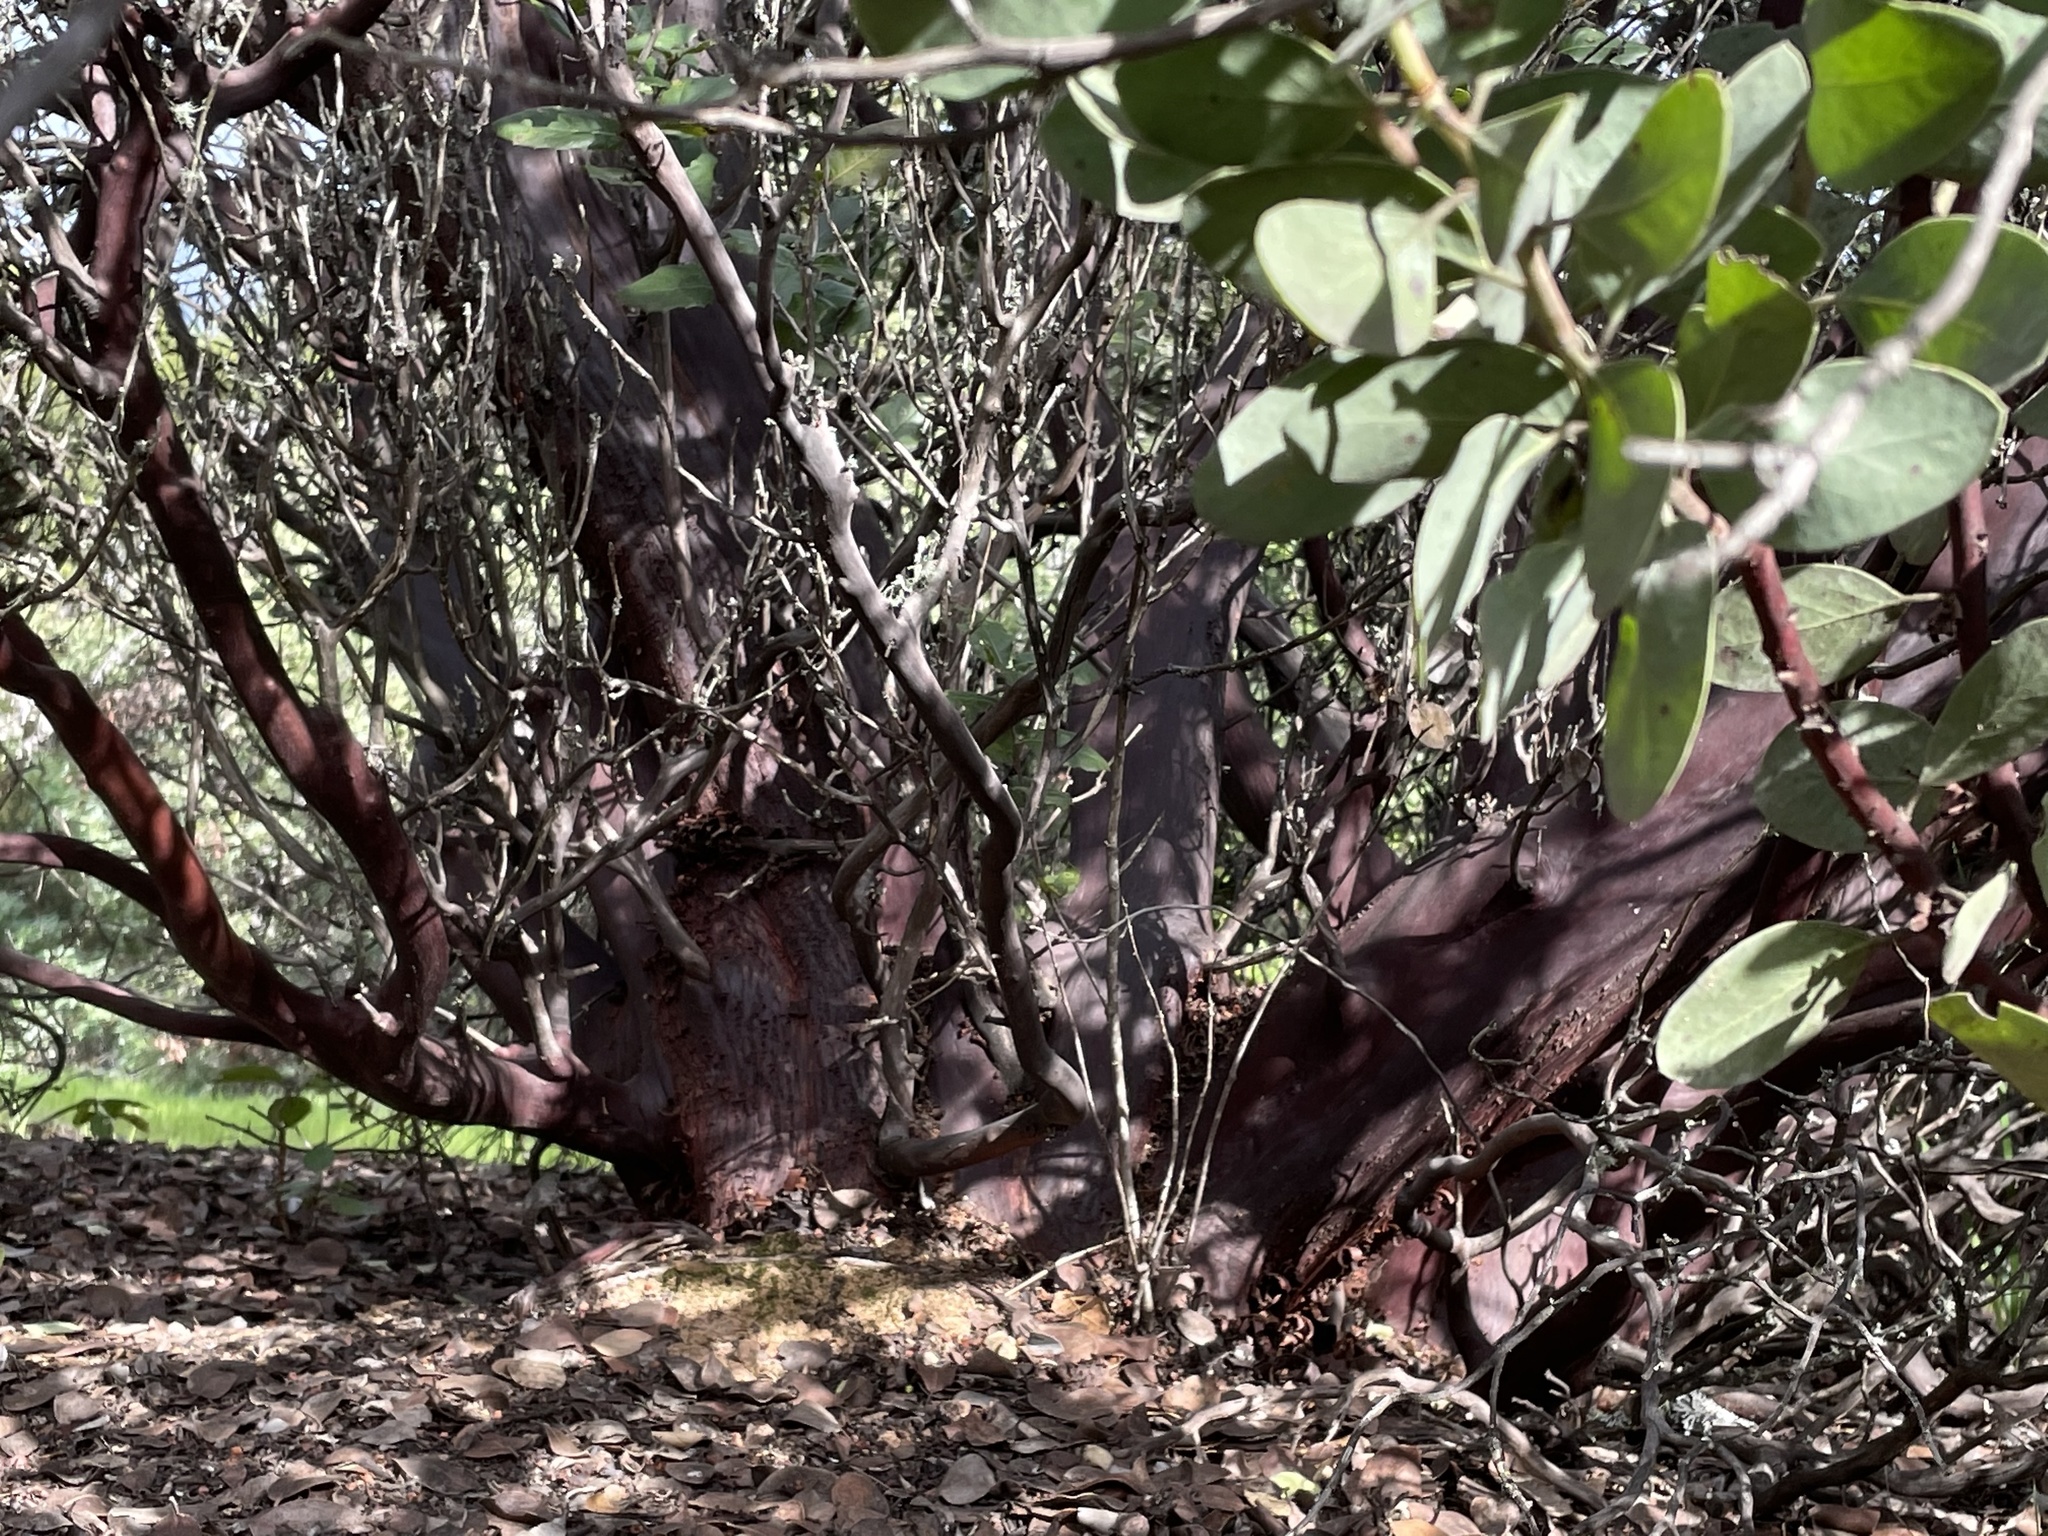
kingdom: Plantae
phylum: Tracheophyta
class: Magnoliopsida
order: Ericales
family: Ericaceae
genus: Arctostaphylos
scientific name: Arctostaphylos manzanita
